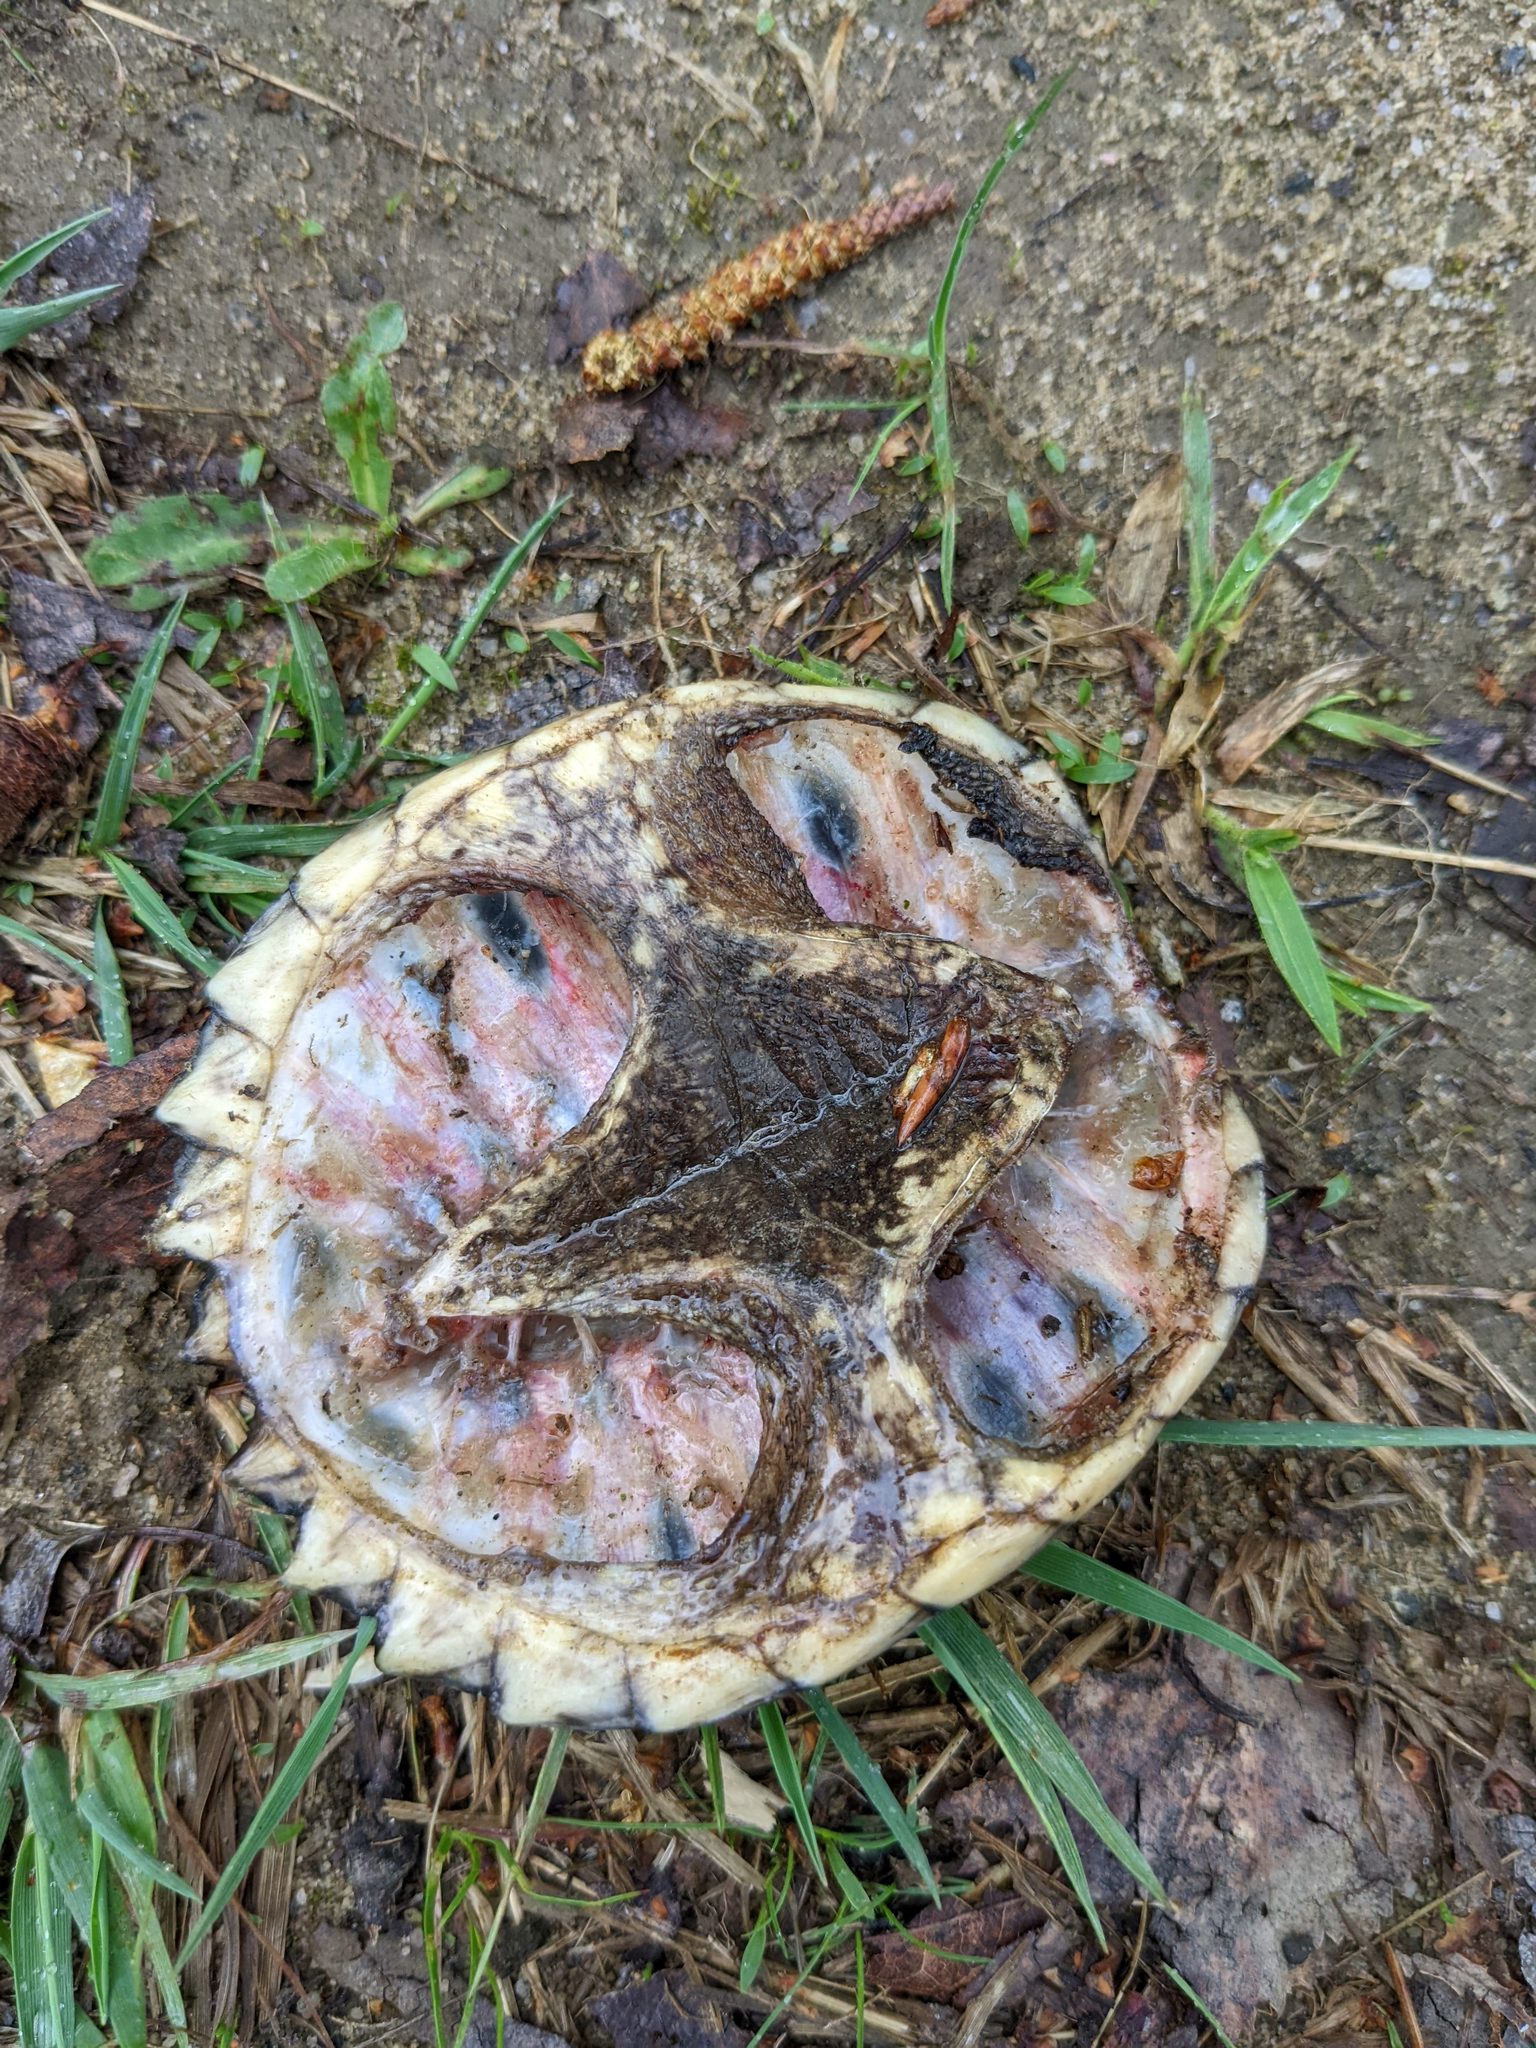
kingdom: Animalia
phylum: Chordata
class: Testudines
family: Chelydridae
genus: Chelydra
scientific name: Chelydra serpentina
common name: Common snapping turtle
